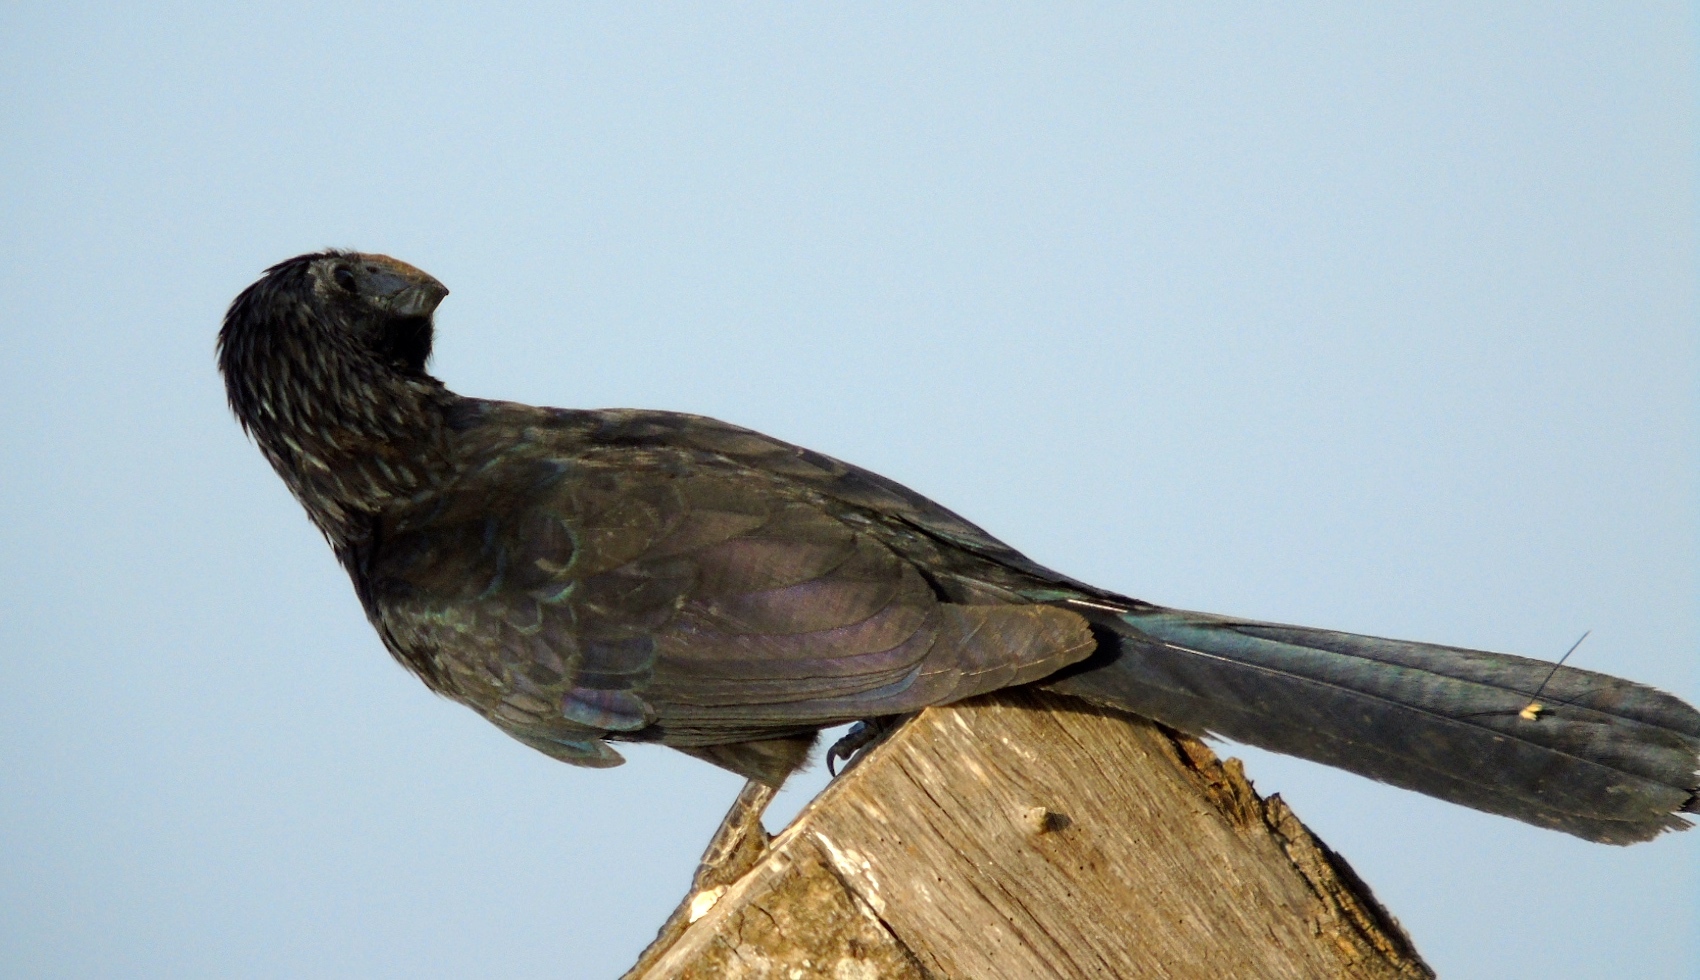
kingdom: Animalia
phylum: Chordata
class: Aves
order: Cuculiformes
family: Cuculidae
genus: Crotophaga
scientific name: Crotophaga sulcirostris
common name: Groove-billed ani
